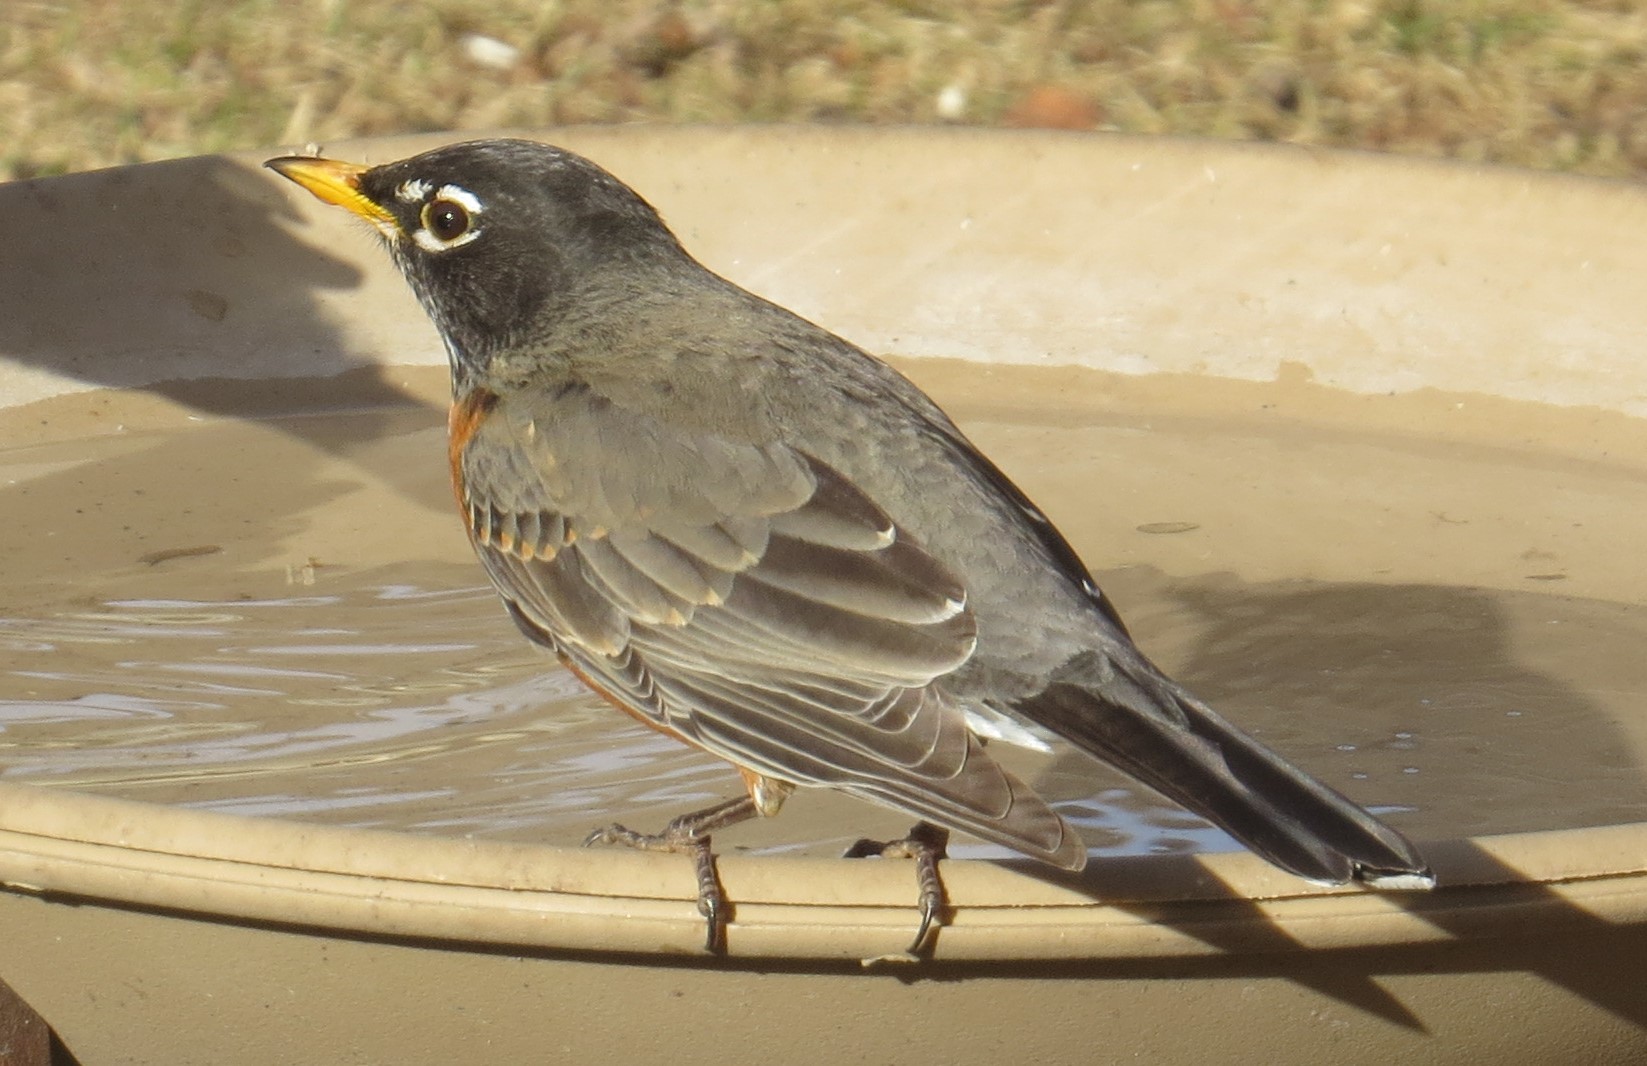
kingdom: Animalia
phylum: Chordata
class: Aves
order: Passeriformes
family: Turdidae
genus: Turdus
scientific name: Turdus migratorius
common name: American robin
